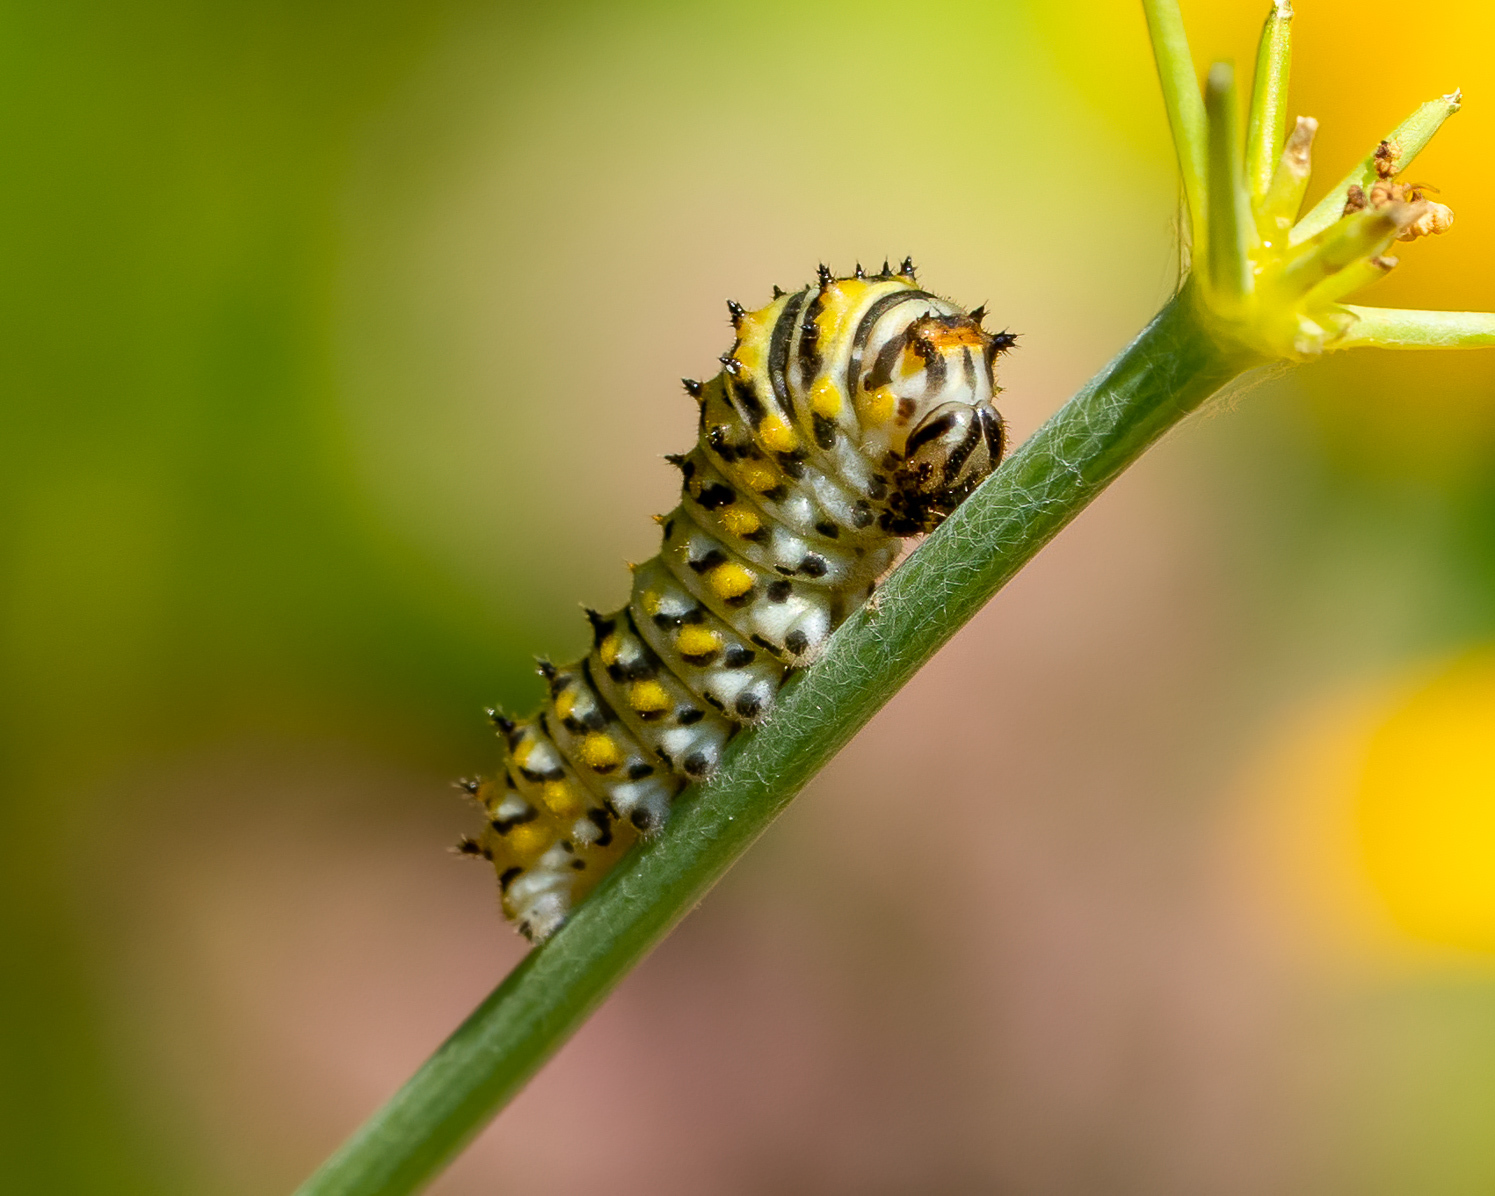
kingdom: Animalia
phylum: Arthropoda
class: Insecta
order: Lepidoptera
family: Papilionidae
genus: Papilio
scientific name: Papilio polyxenes
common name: Black swallowtail
